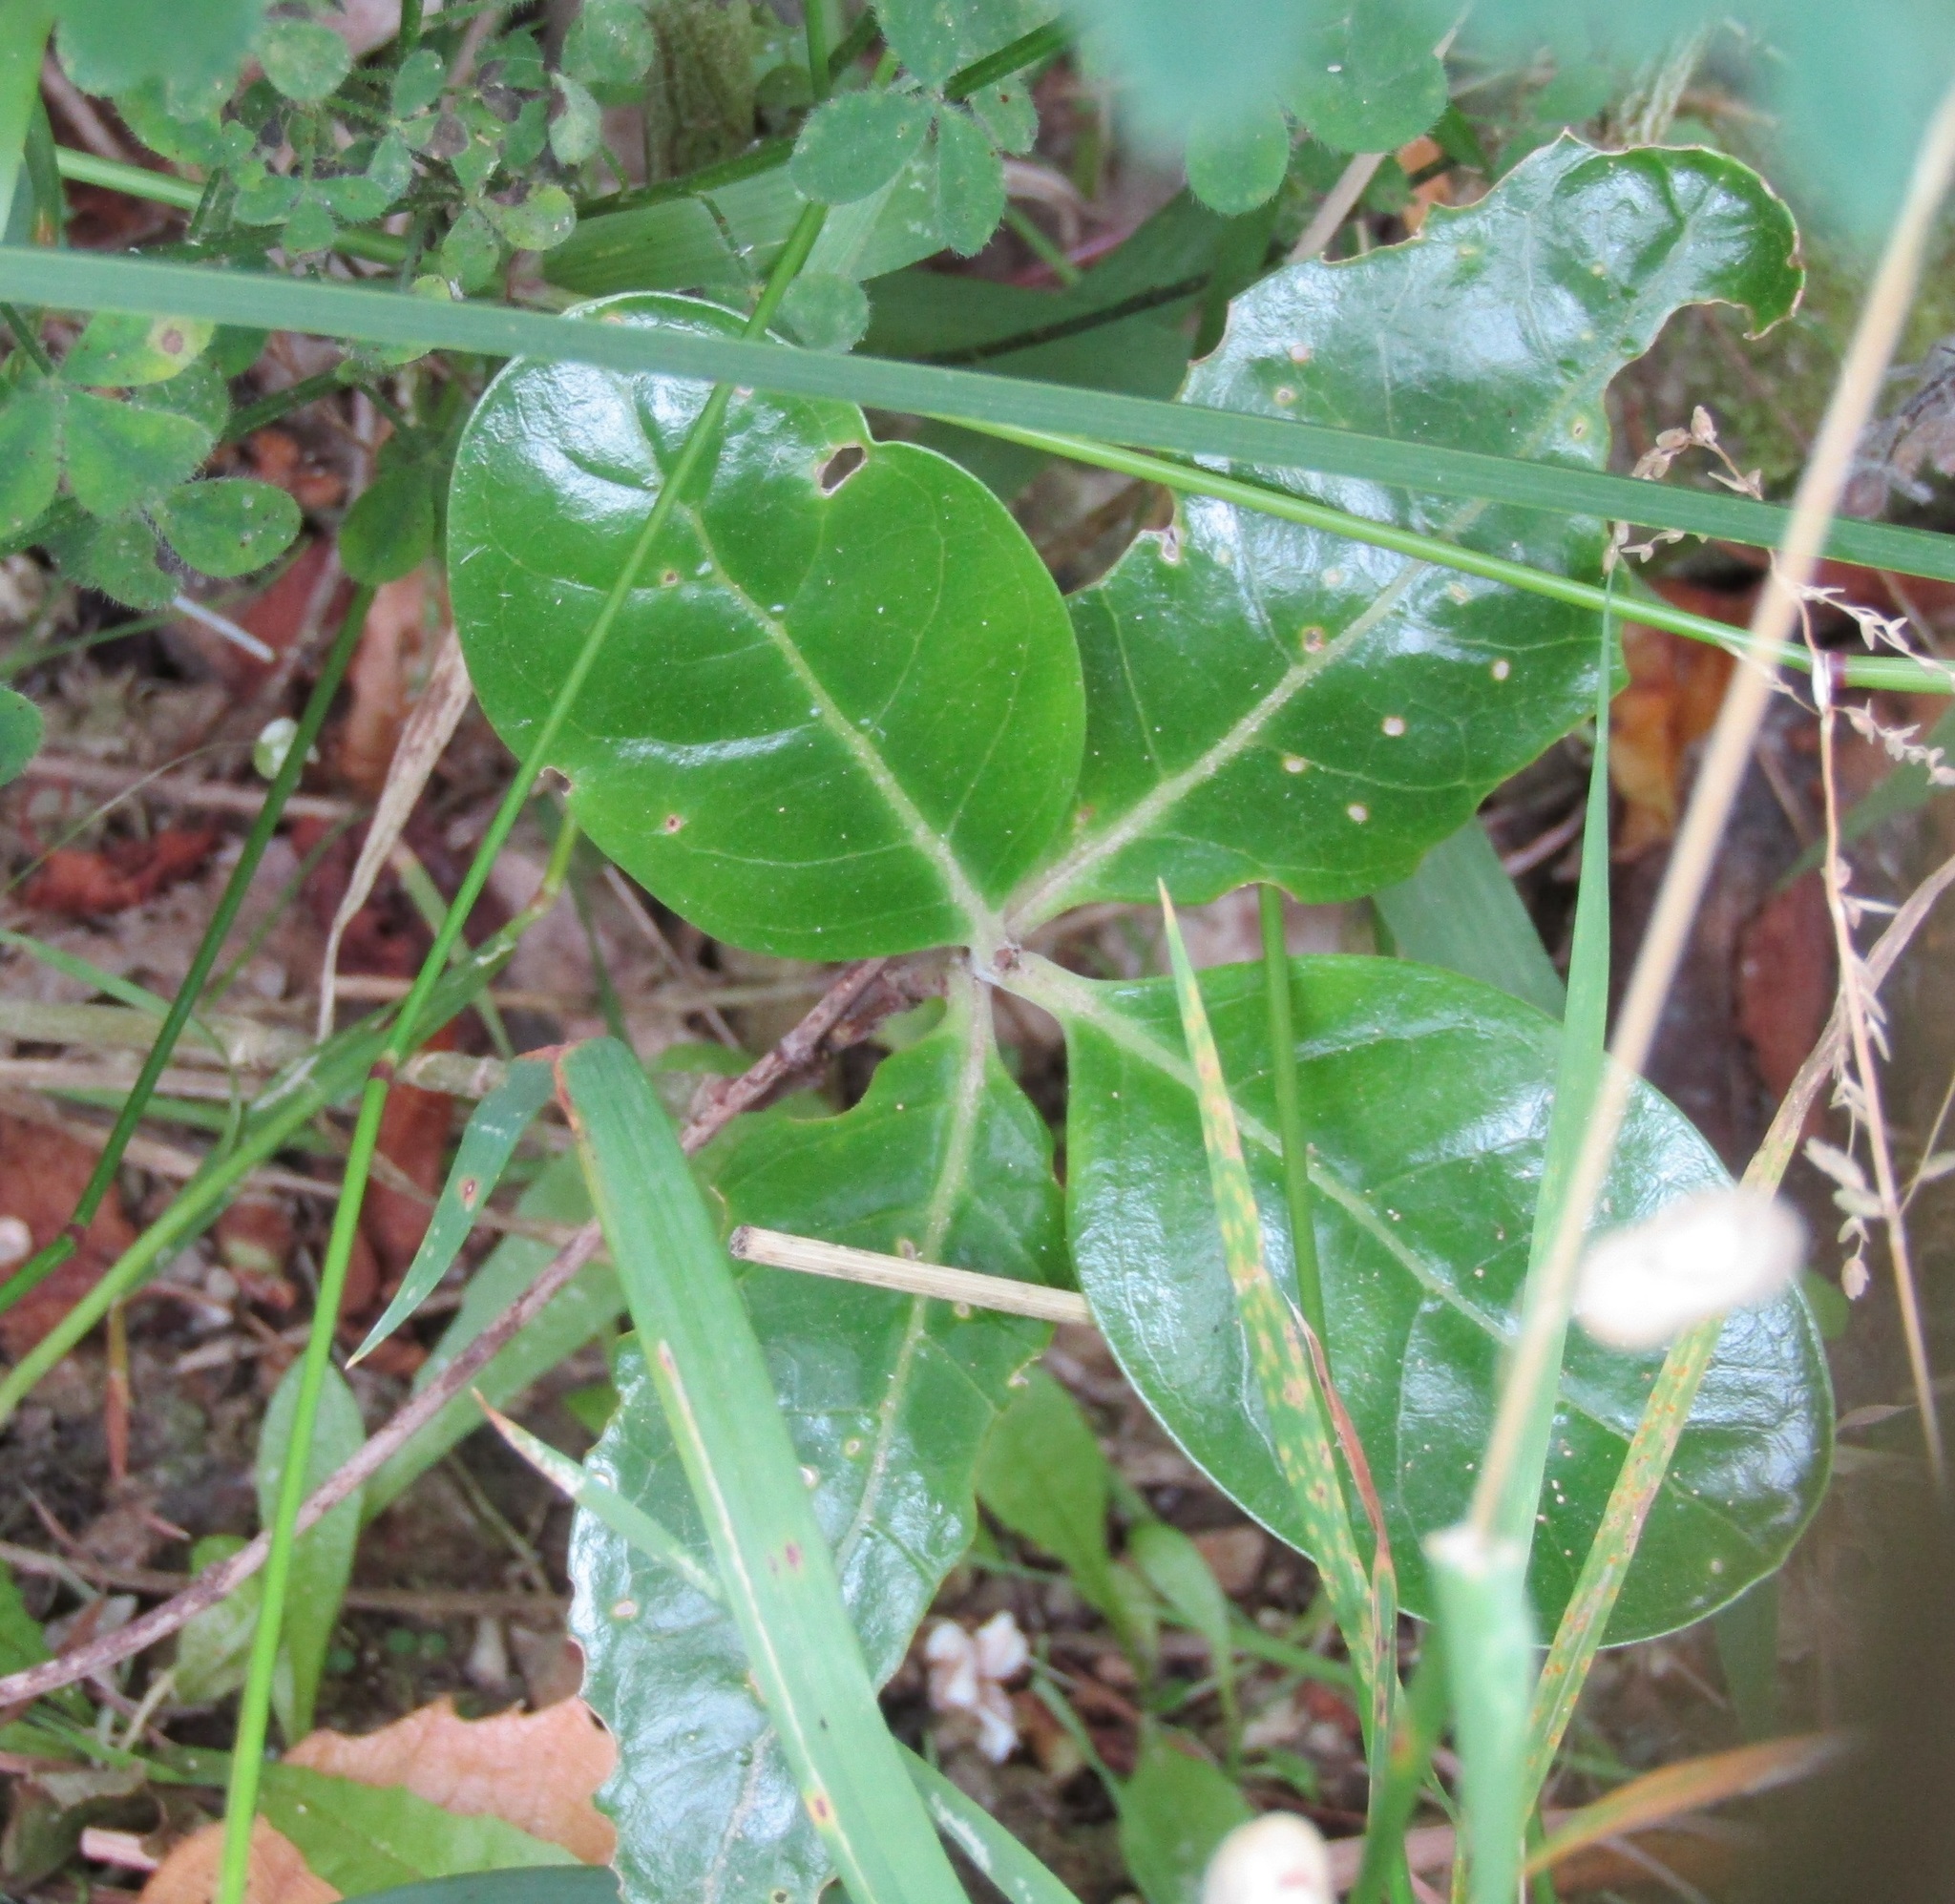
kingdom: Plantae
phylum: Tracheophyta
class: Magnoliopsida
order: Gentianales
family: Rubiaceae
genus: Coprosma
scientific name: Coprosma repens
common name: Tree bedstraw
